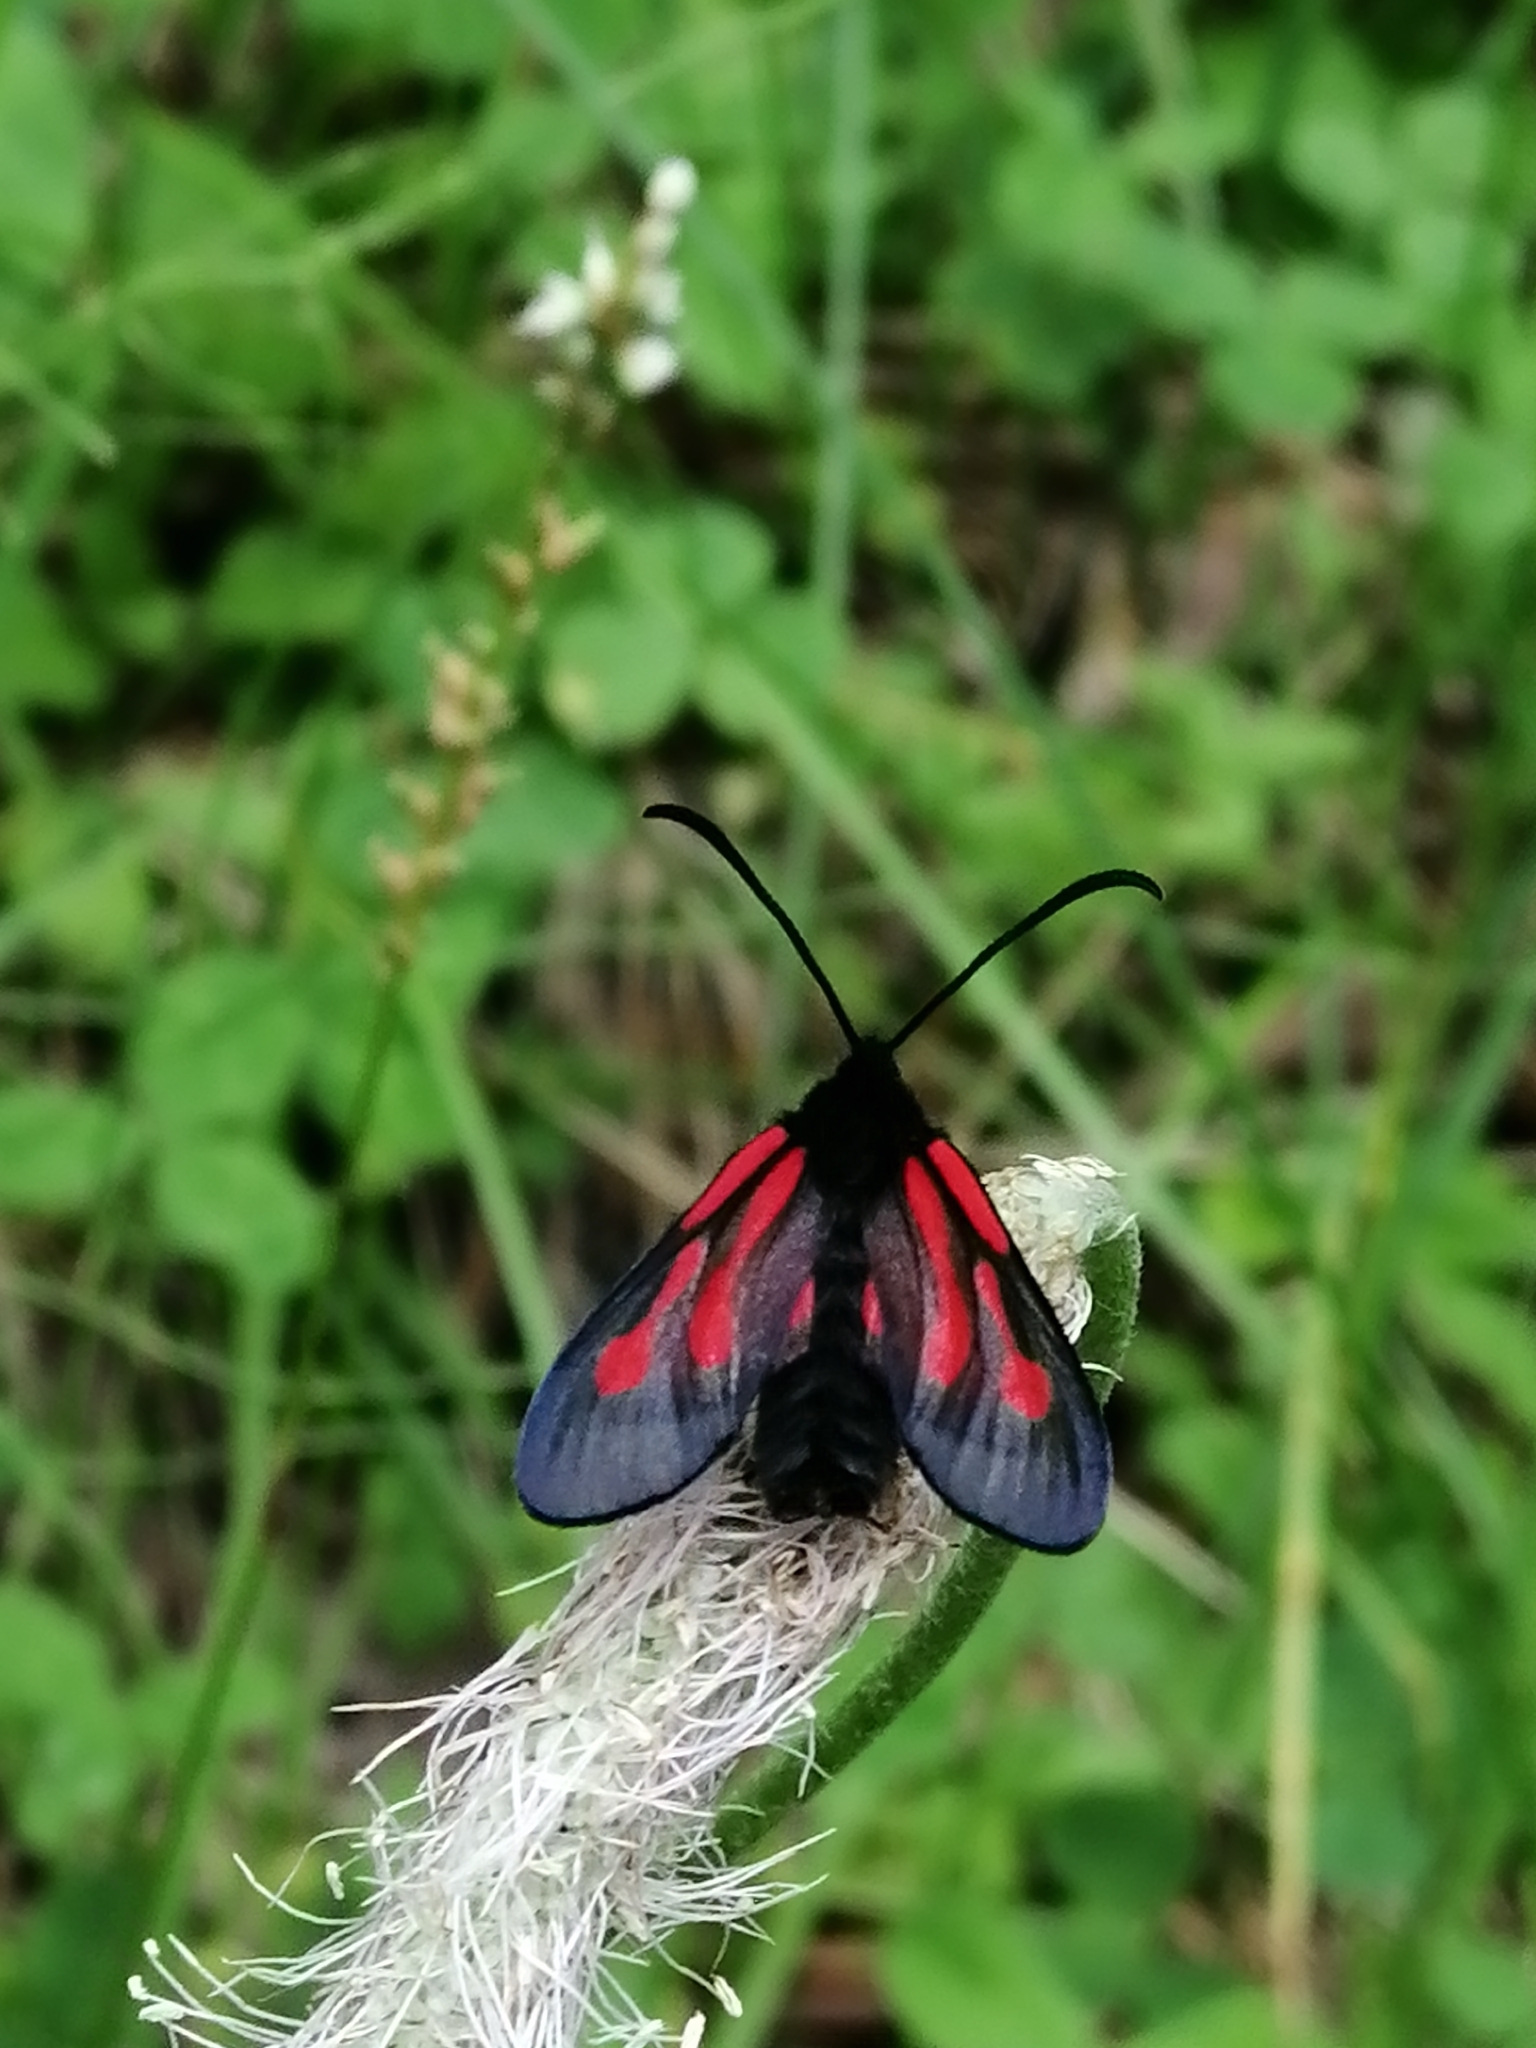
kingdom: Animalia
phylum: Arthropoda
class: Insecta
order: Lepidoptera
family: Zygaenidae
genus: Zygaena
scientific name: Zygaena osterodensis
